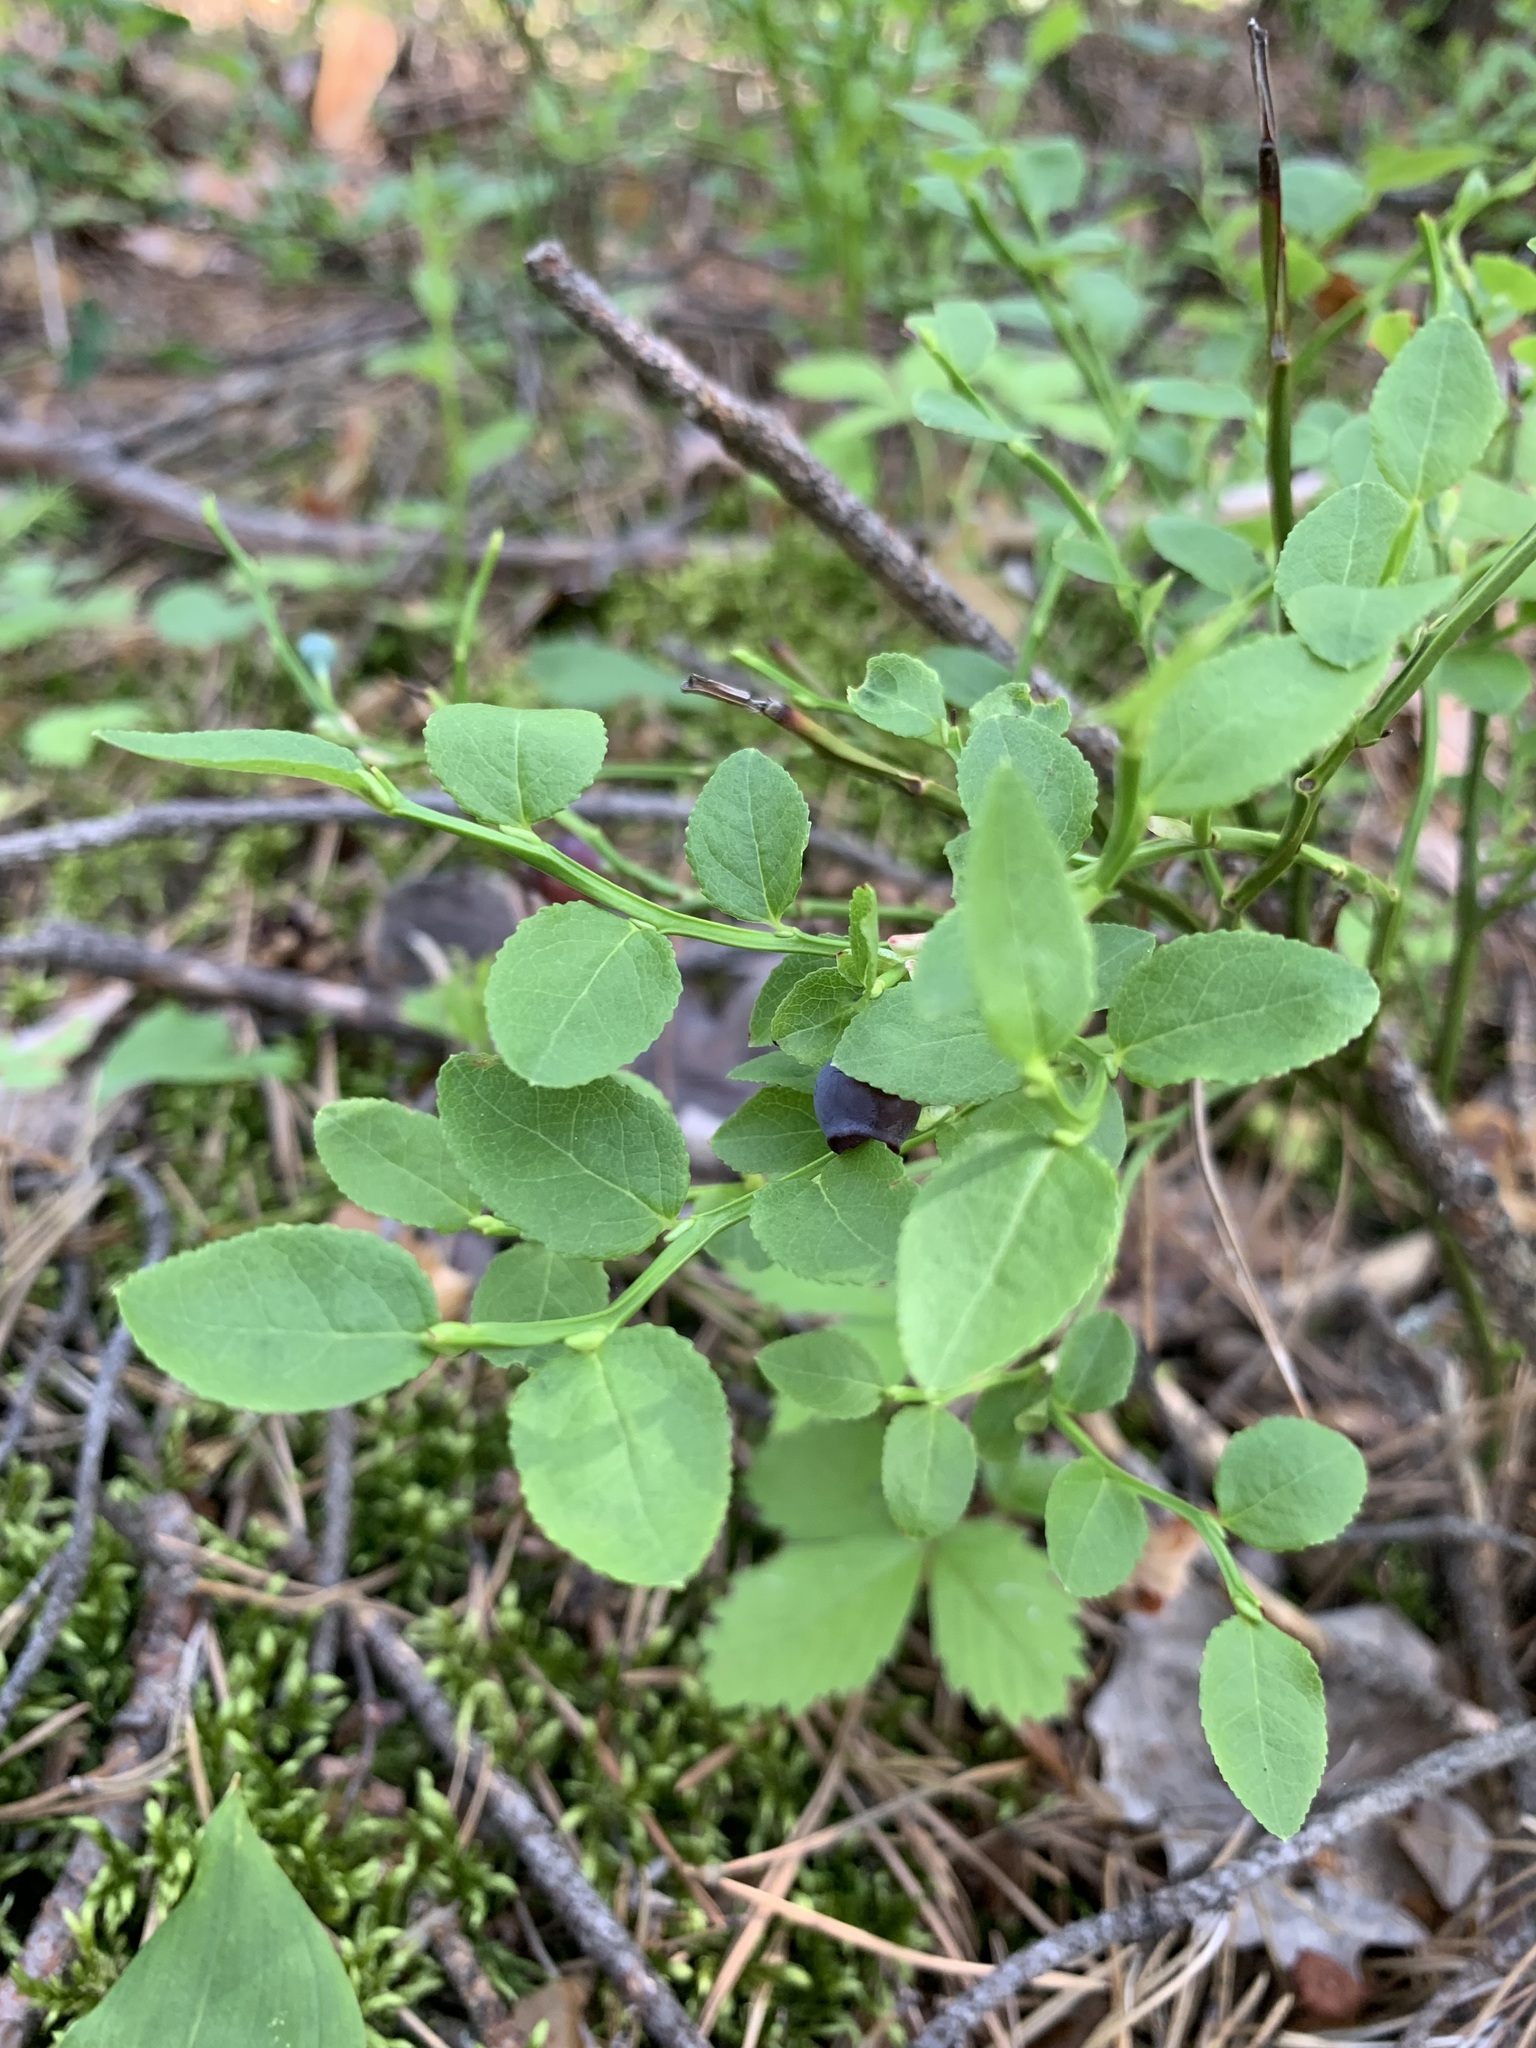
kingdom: Plantae
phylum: Tracheophyta
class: Magnoliopsida
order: Ericales
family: Ericaceae
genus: Vaccinium
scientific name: Vaccinium myrtillus
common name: Bilberry
